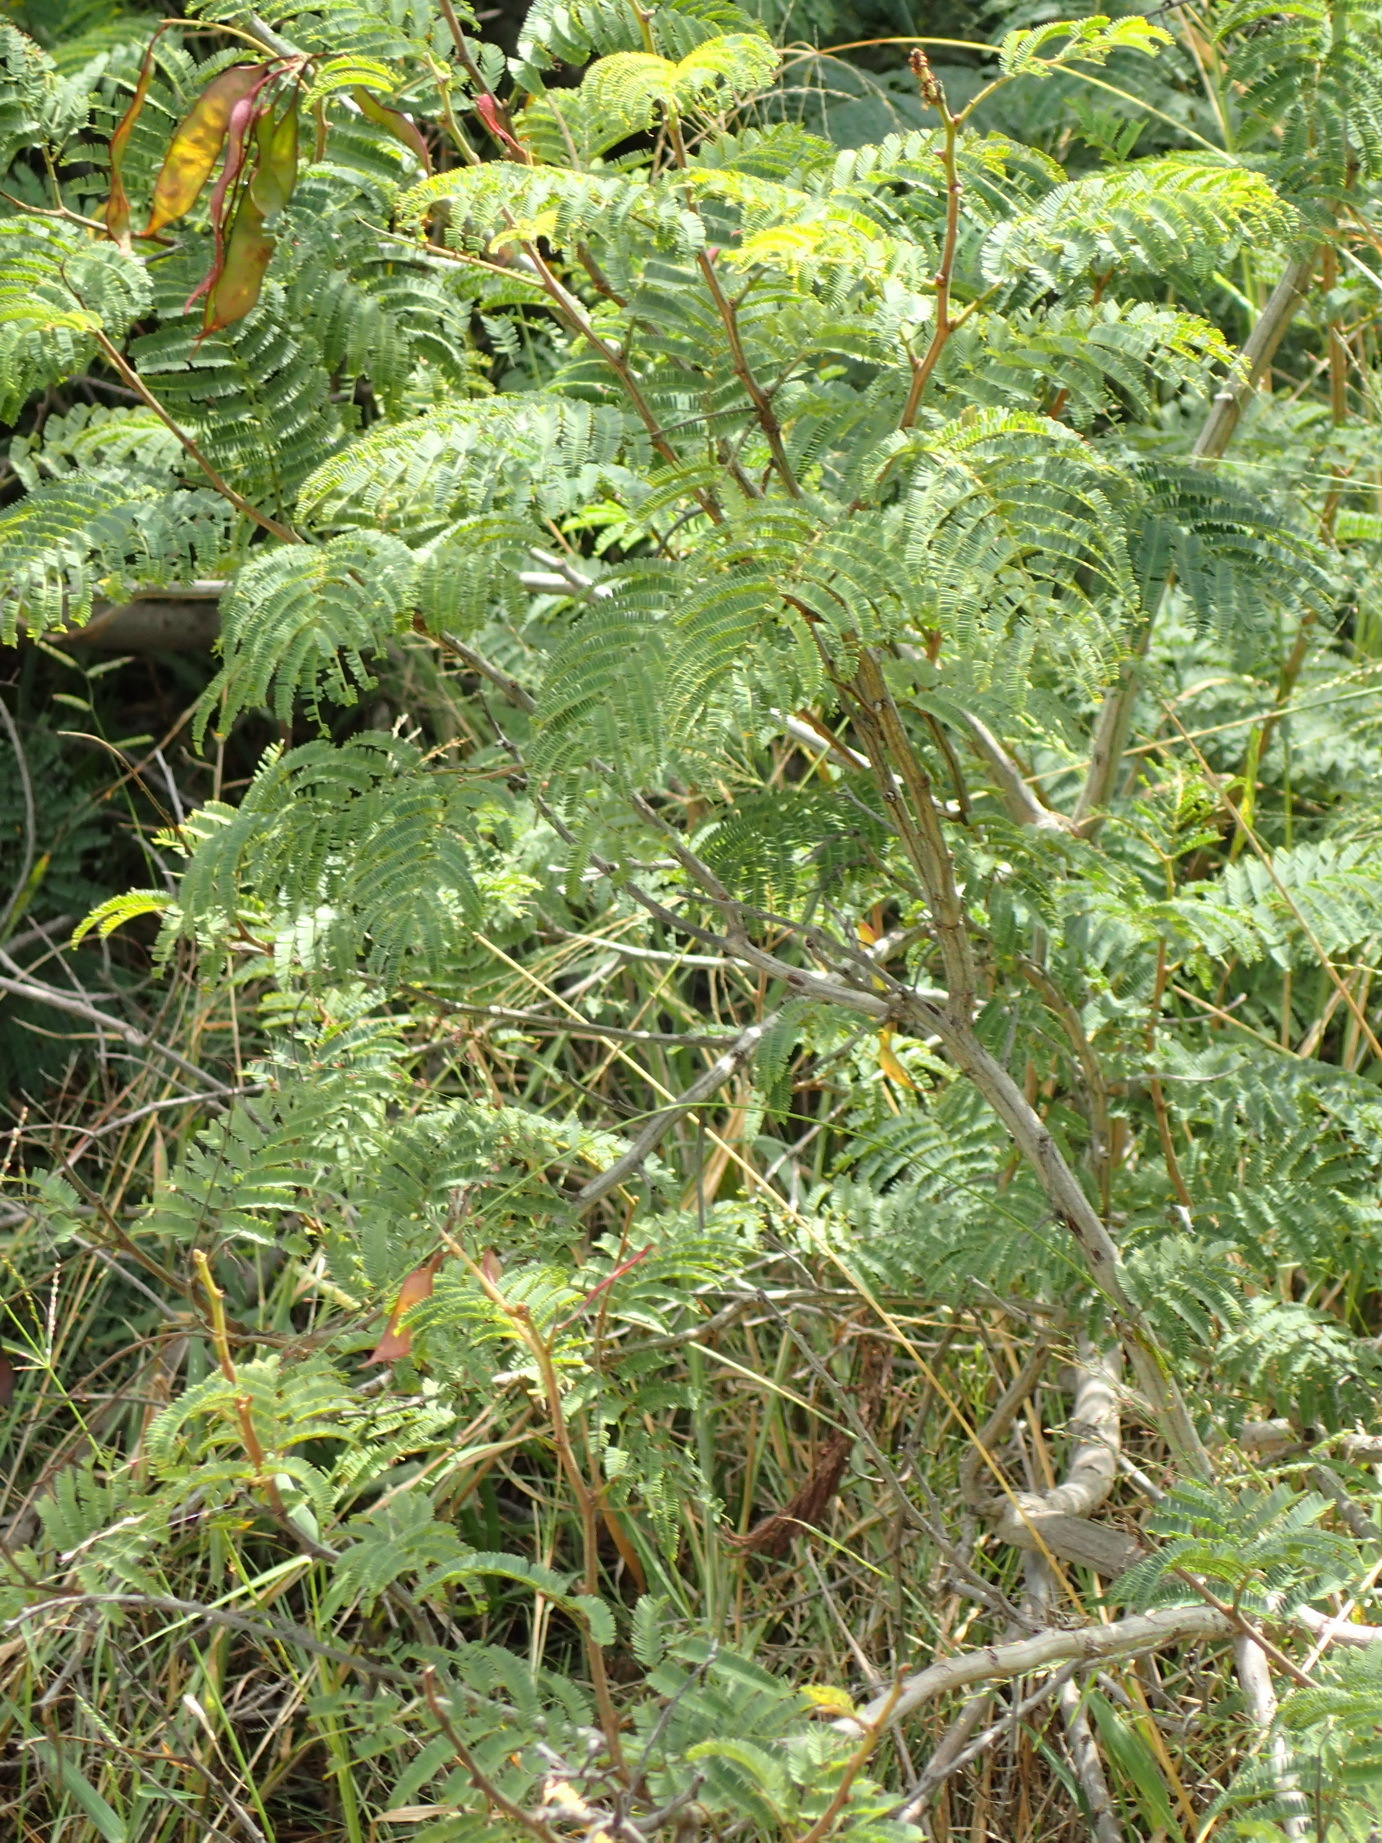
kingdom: Plantae
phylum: Tracheophyta
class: Magnoliopsida
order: Fabales
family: Fabaceae
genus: Senegalia
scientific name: Senegalia ataxacantha
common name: Flame acacia
